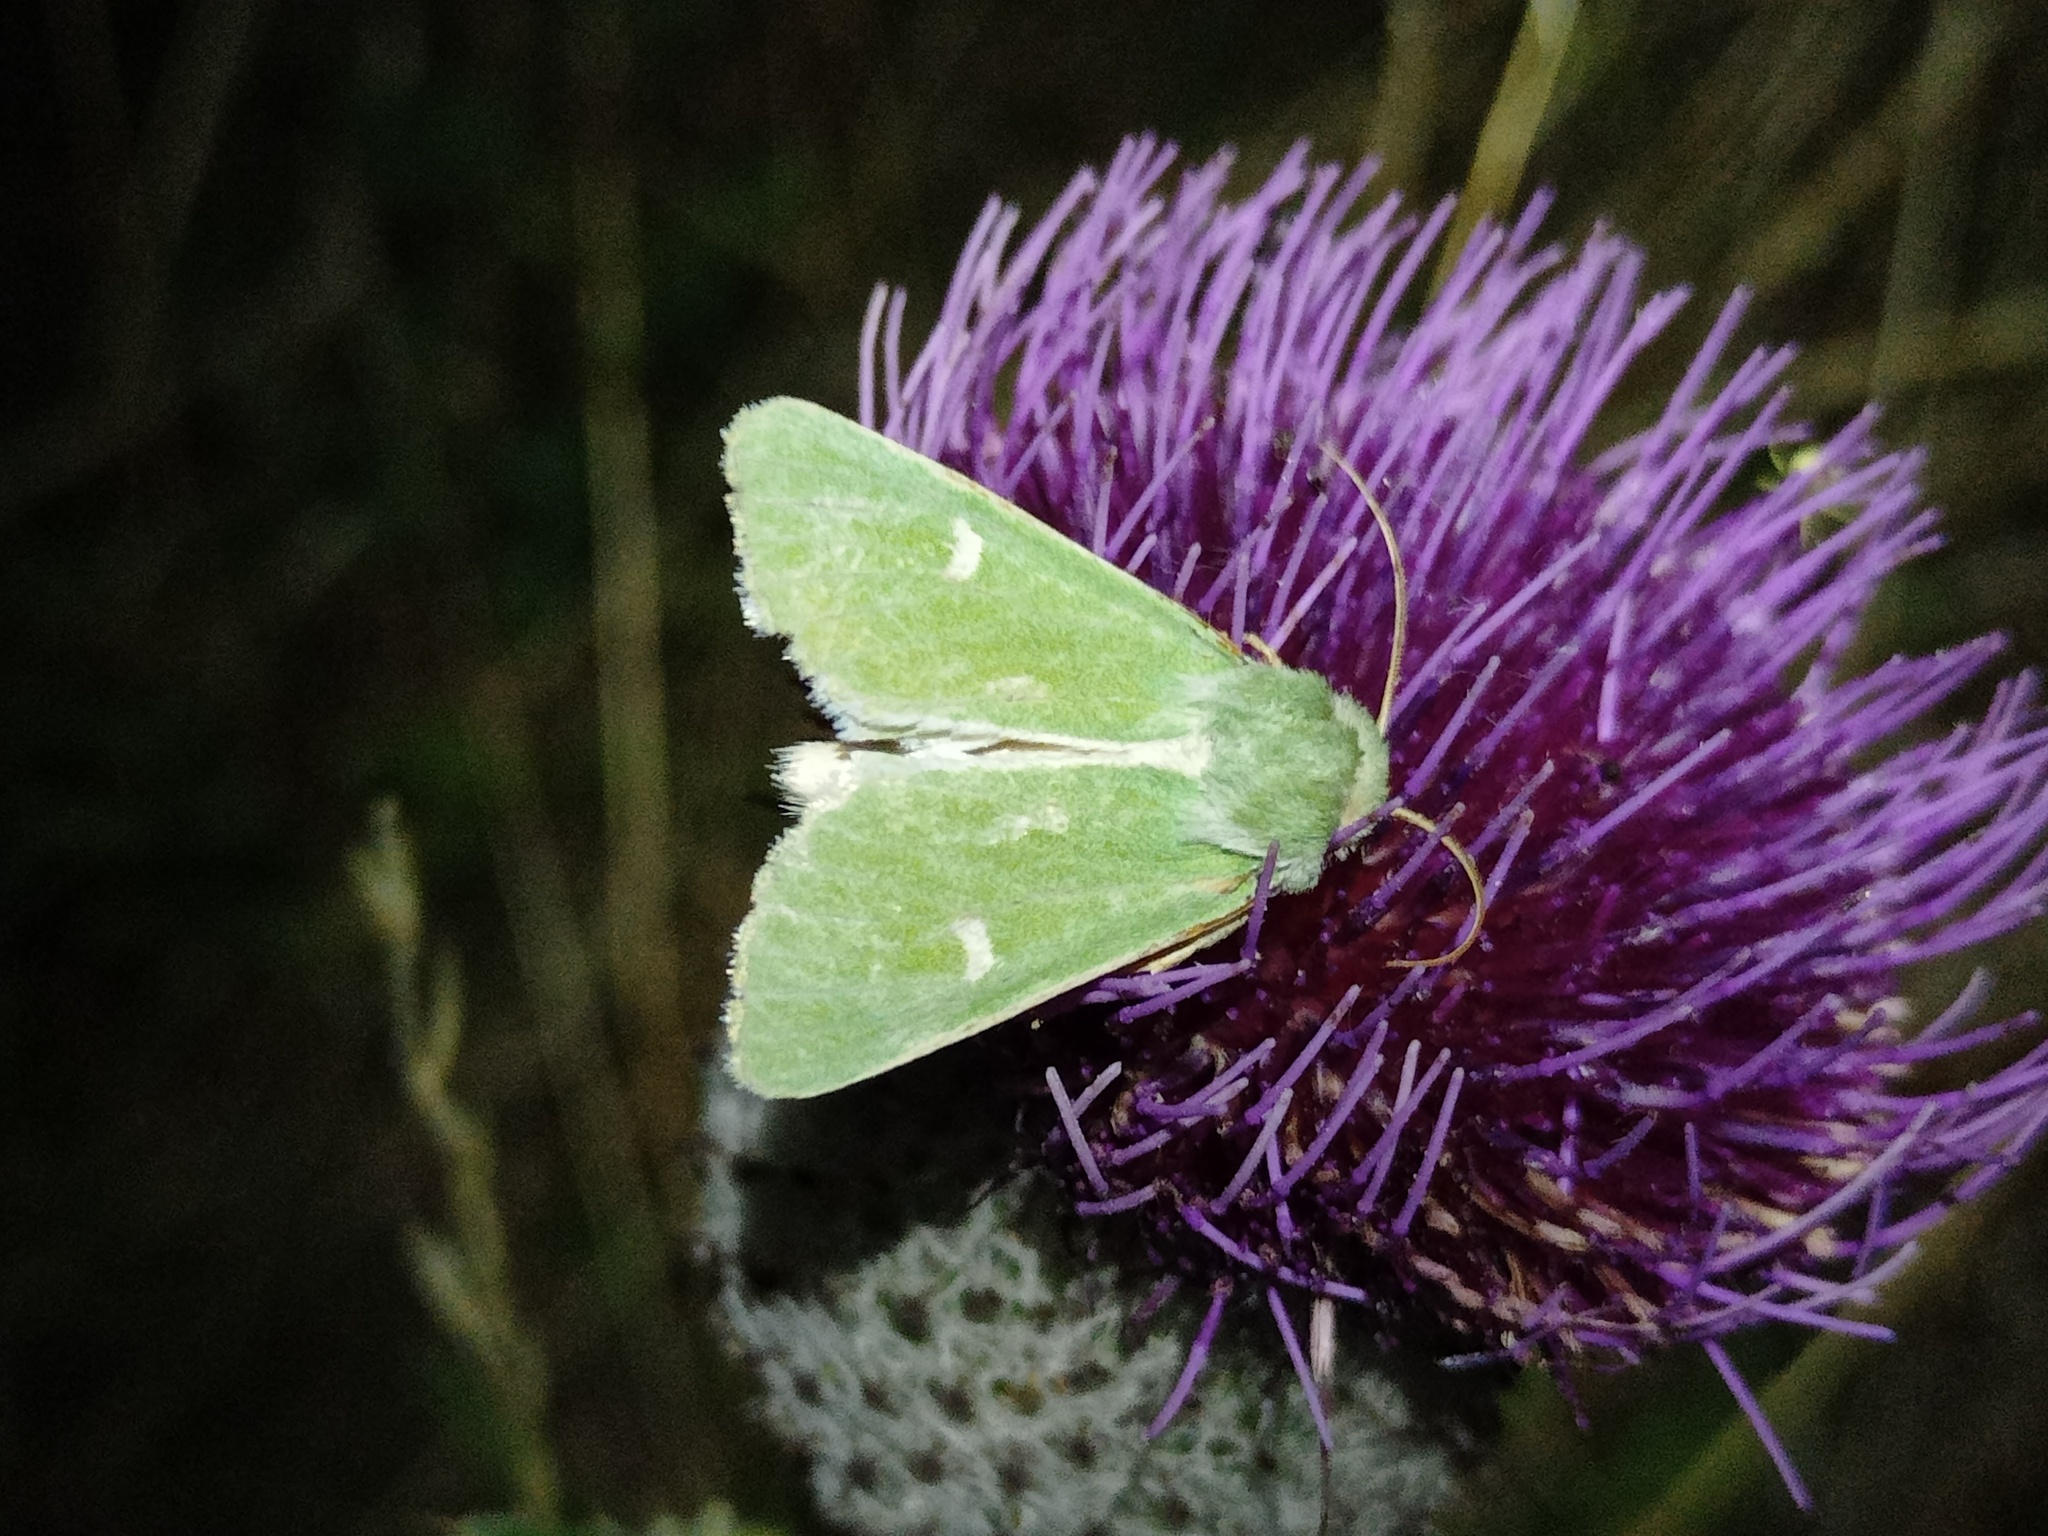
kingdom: Animalia
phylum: Arthropoda
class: Insecta
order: Lepidoptera
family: Noctuidae
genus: Calamia
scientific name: Calamia tridens
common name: Burren green
